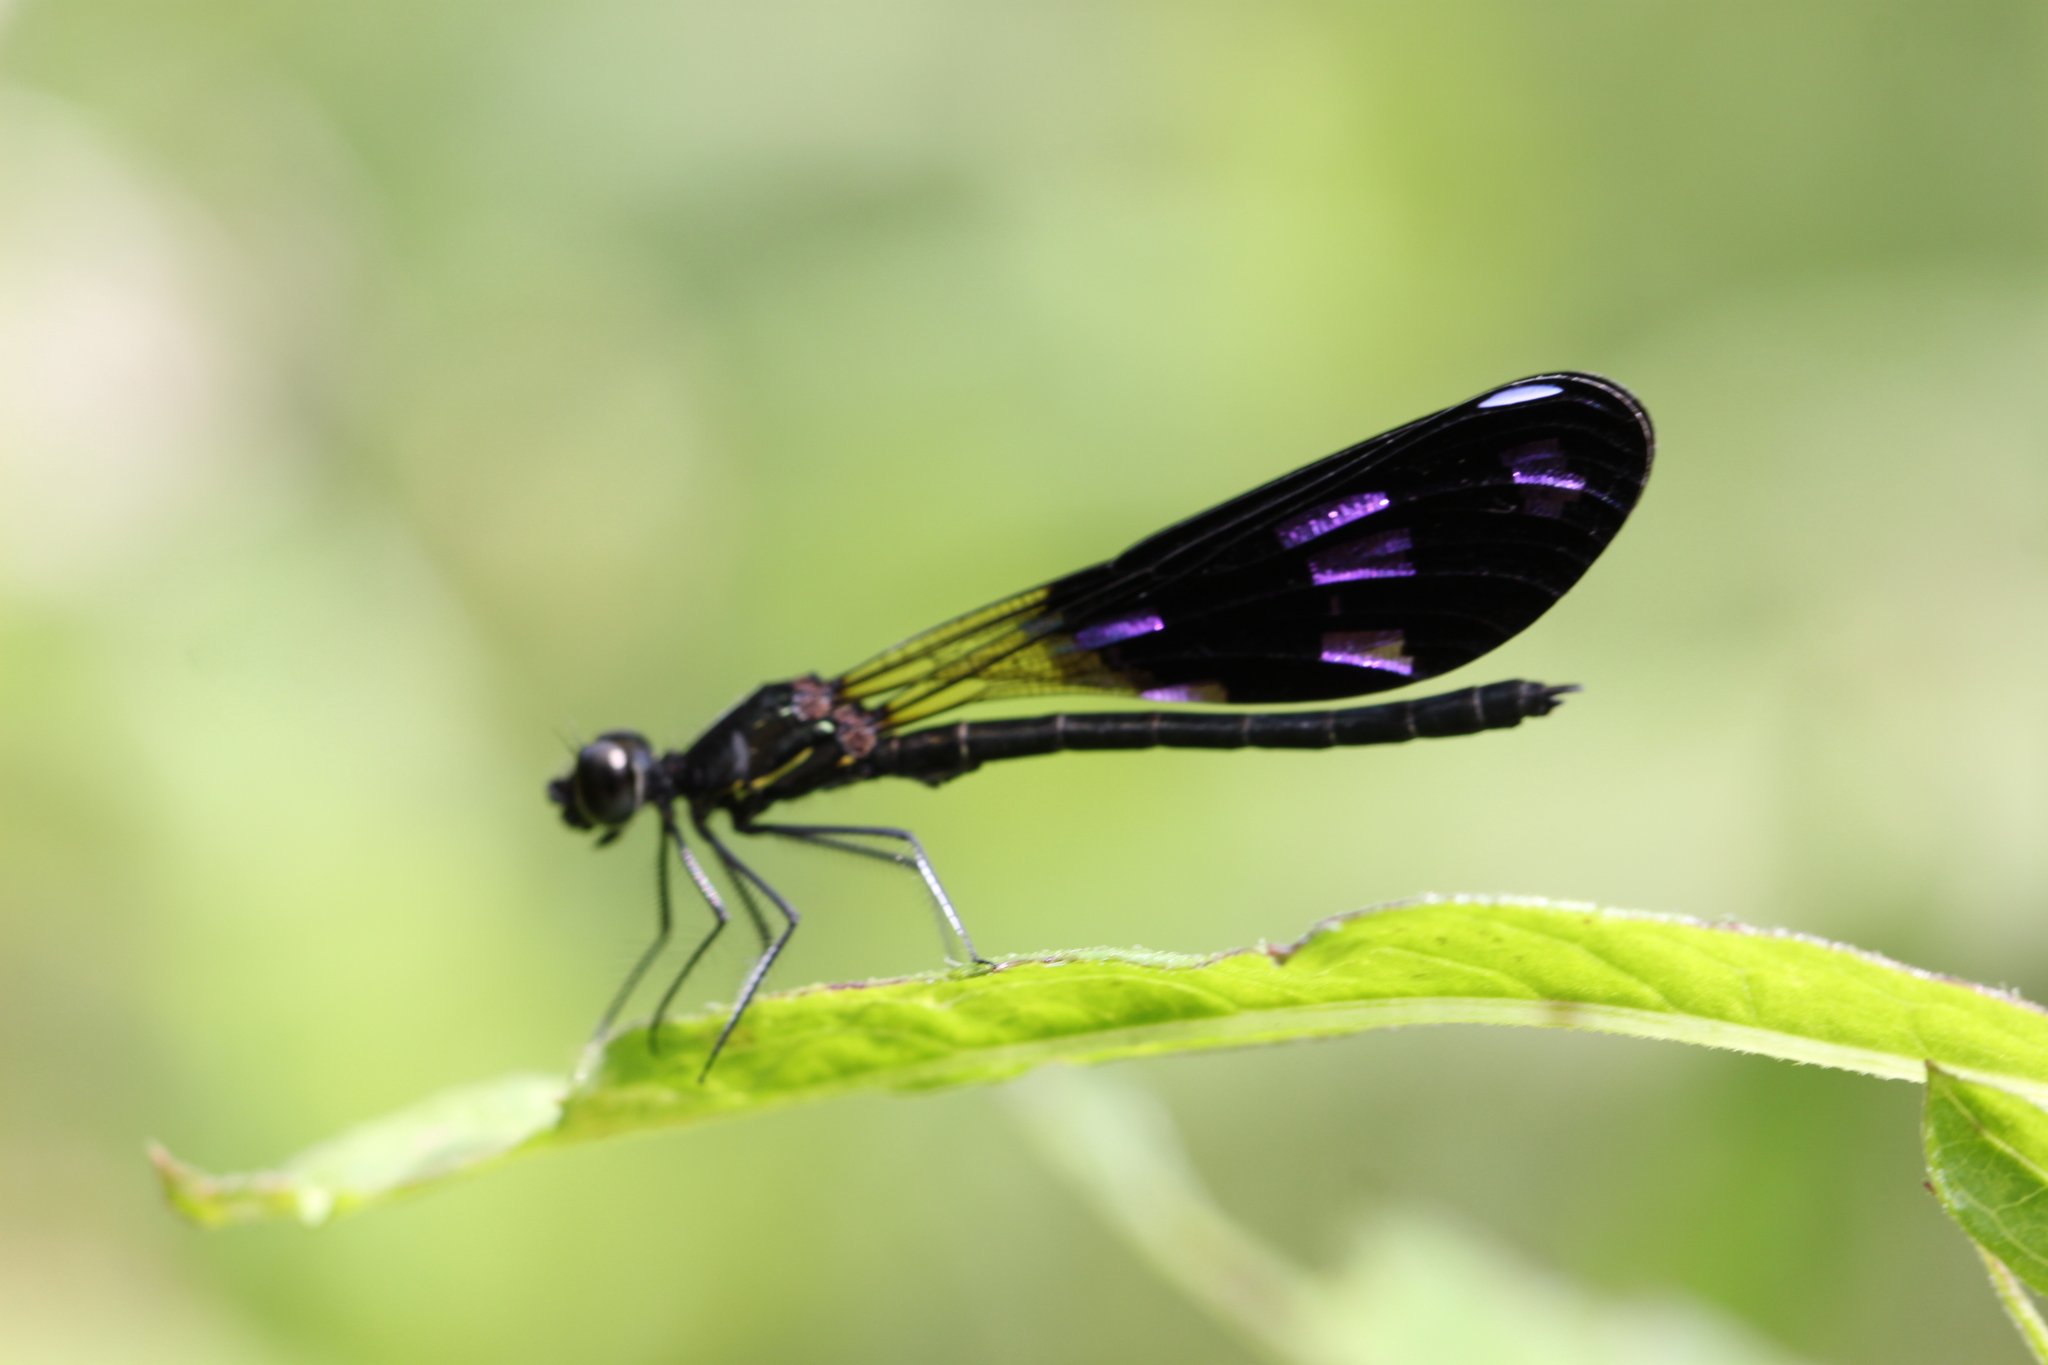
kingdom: Animalia
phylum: Arthropoda
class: Insecta
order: Odonata
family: Chlorocyphidae
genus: Aristocypha
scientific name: Aristocypha fenestrella
